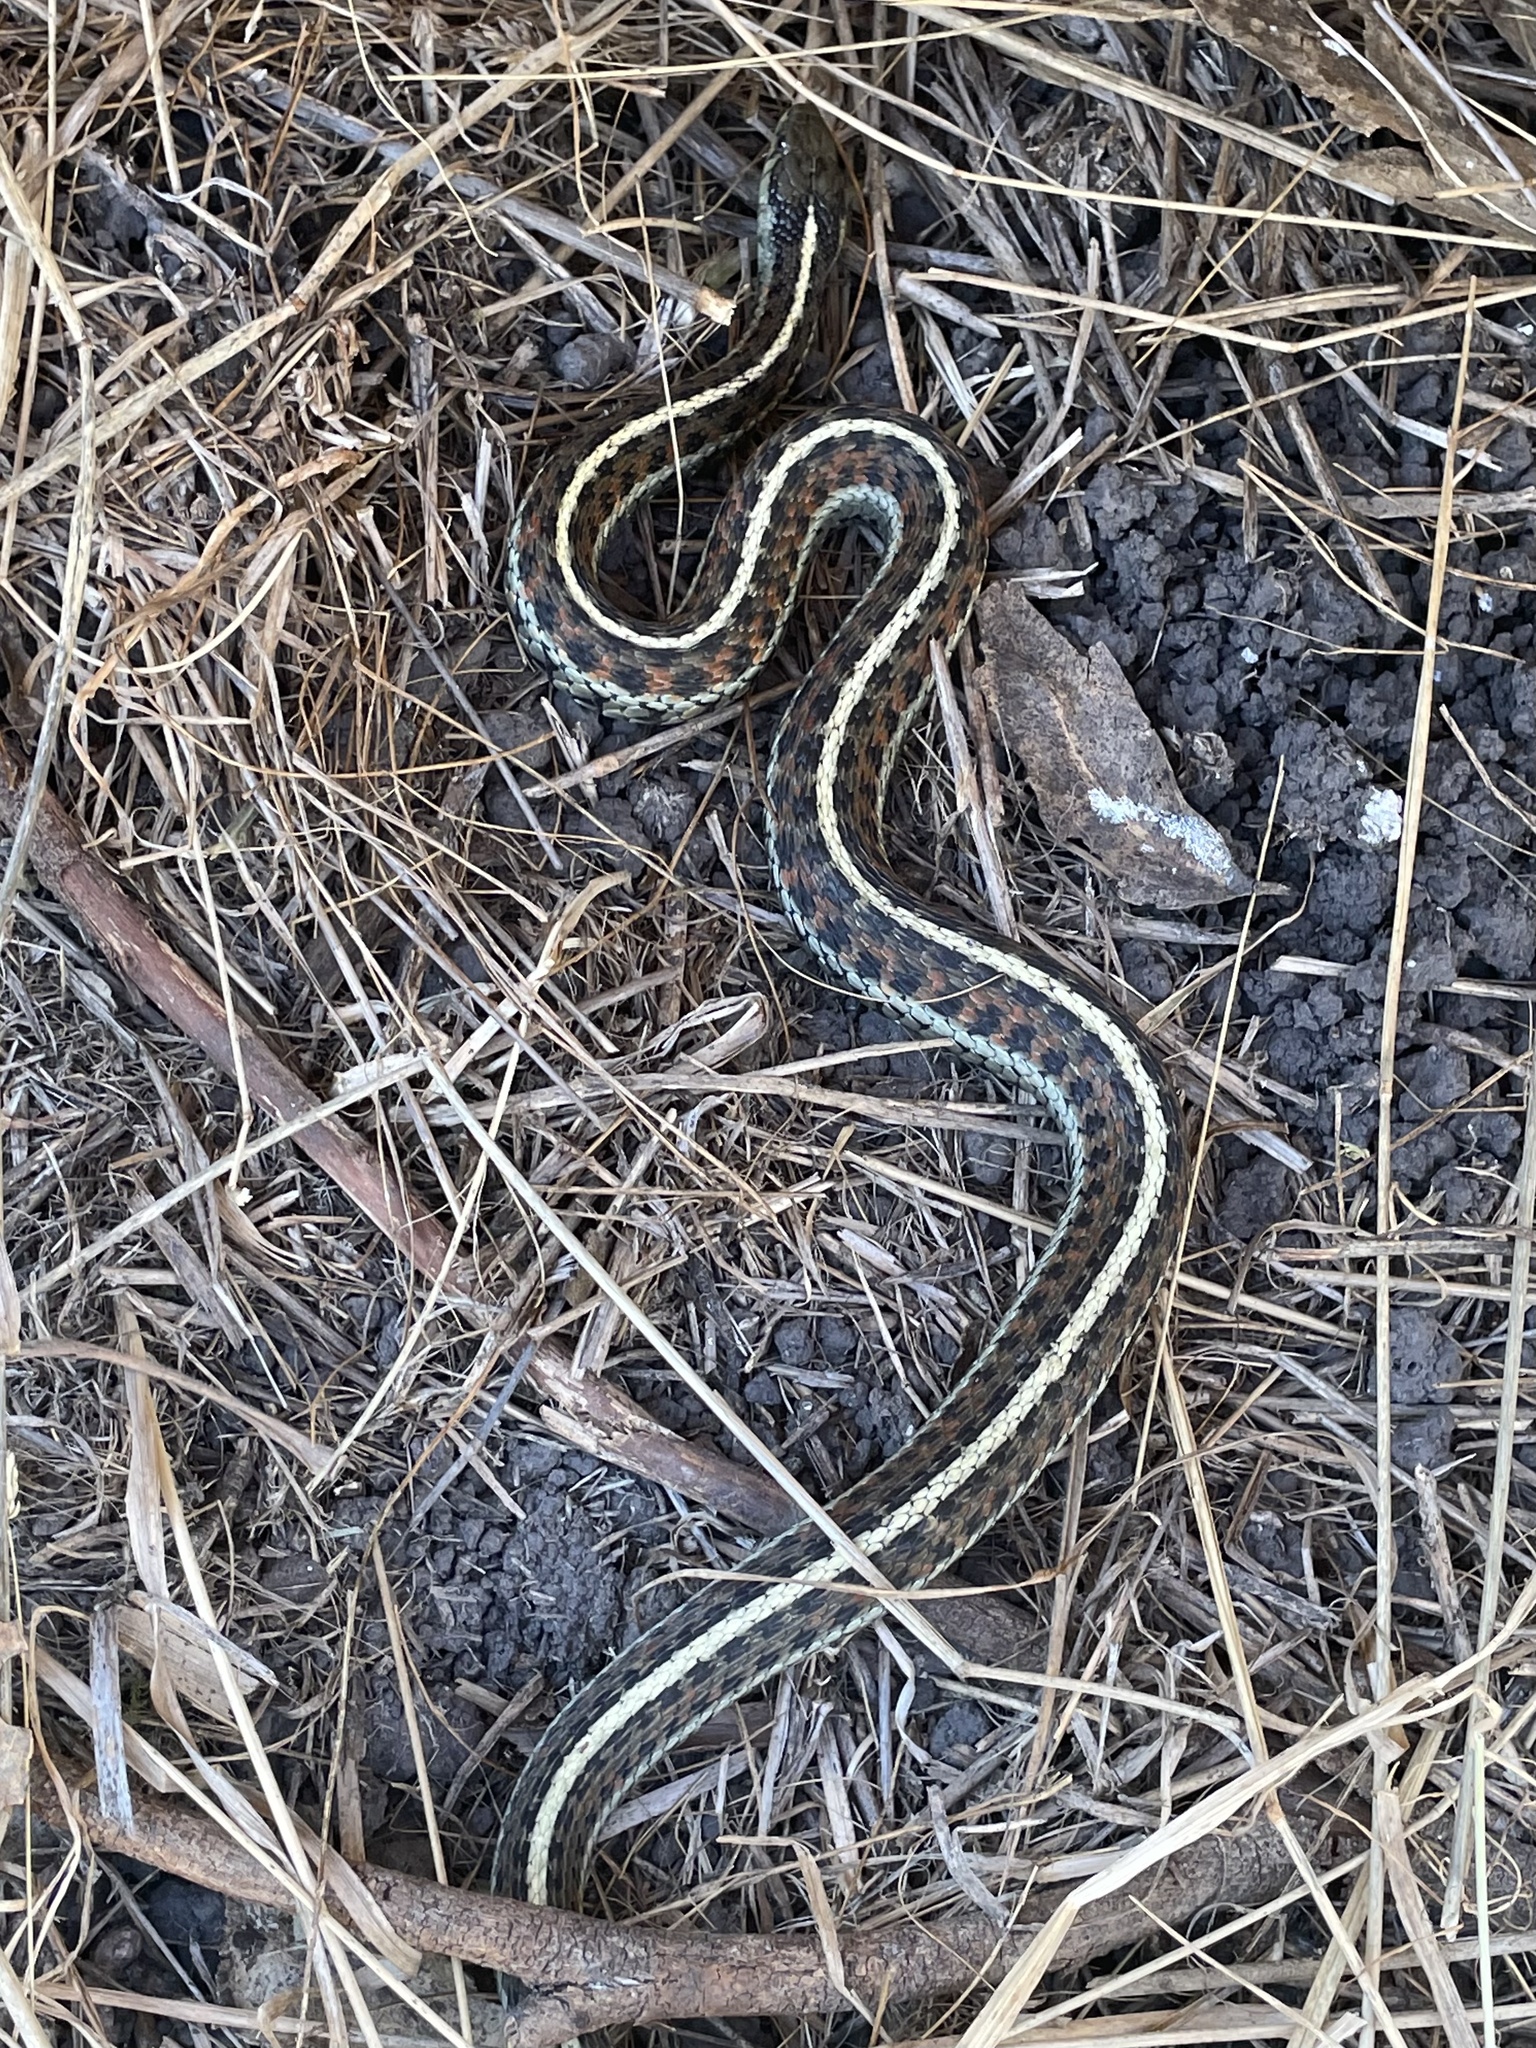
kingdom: Animalia
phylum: Chordata
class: Squamata
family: Colubridae
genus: Thamnophis
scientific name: Thamnophis elegans
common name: Western terrestrial garter snake
